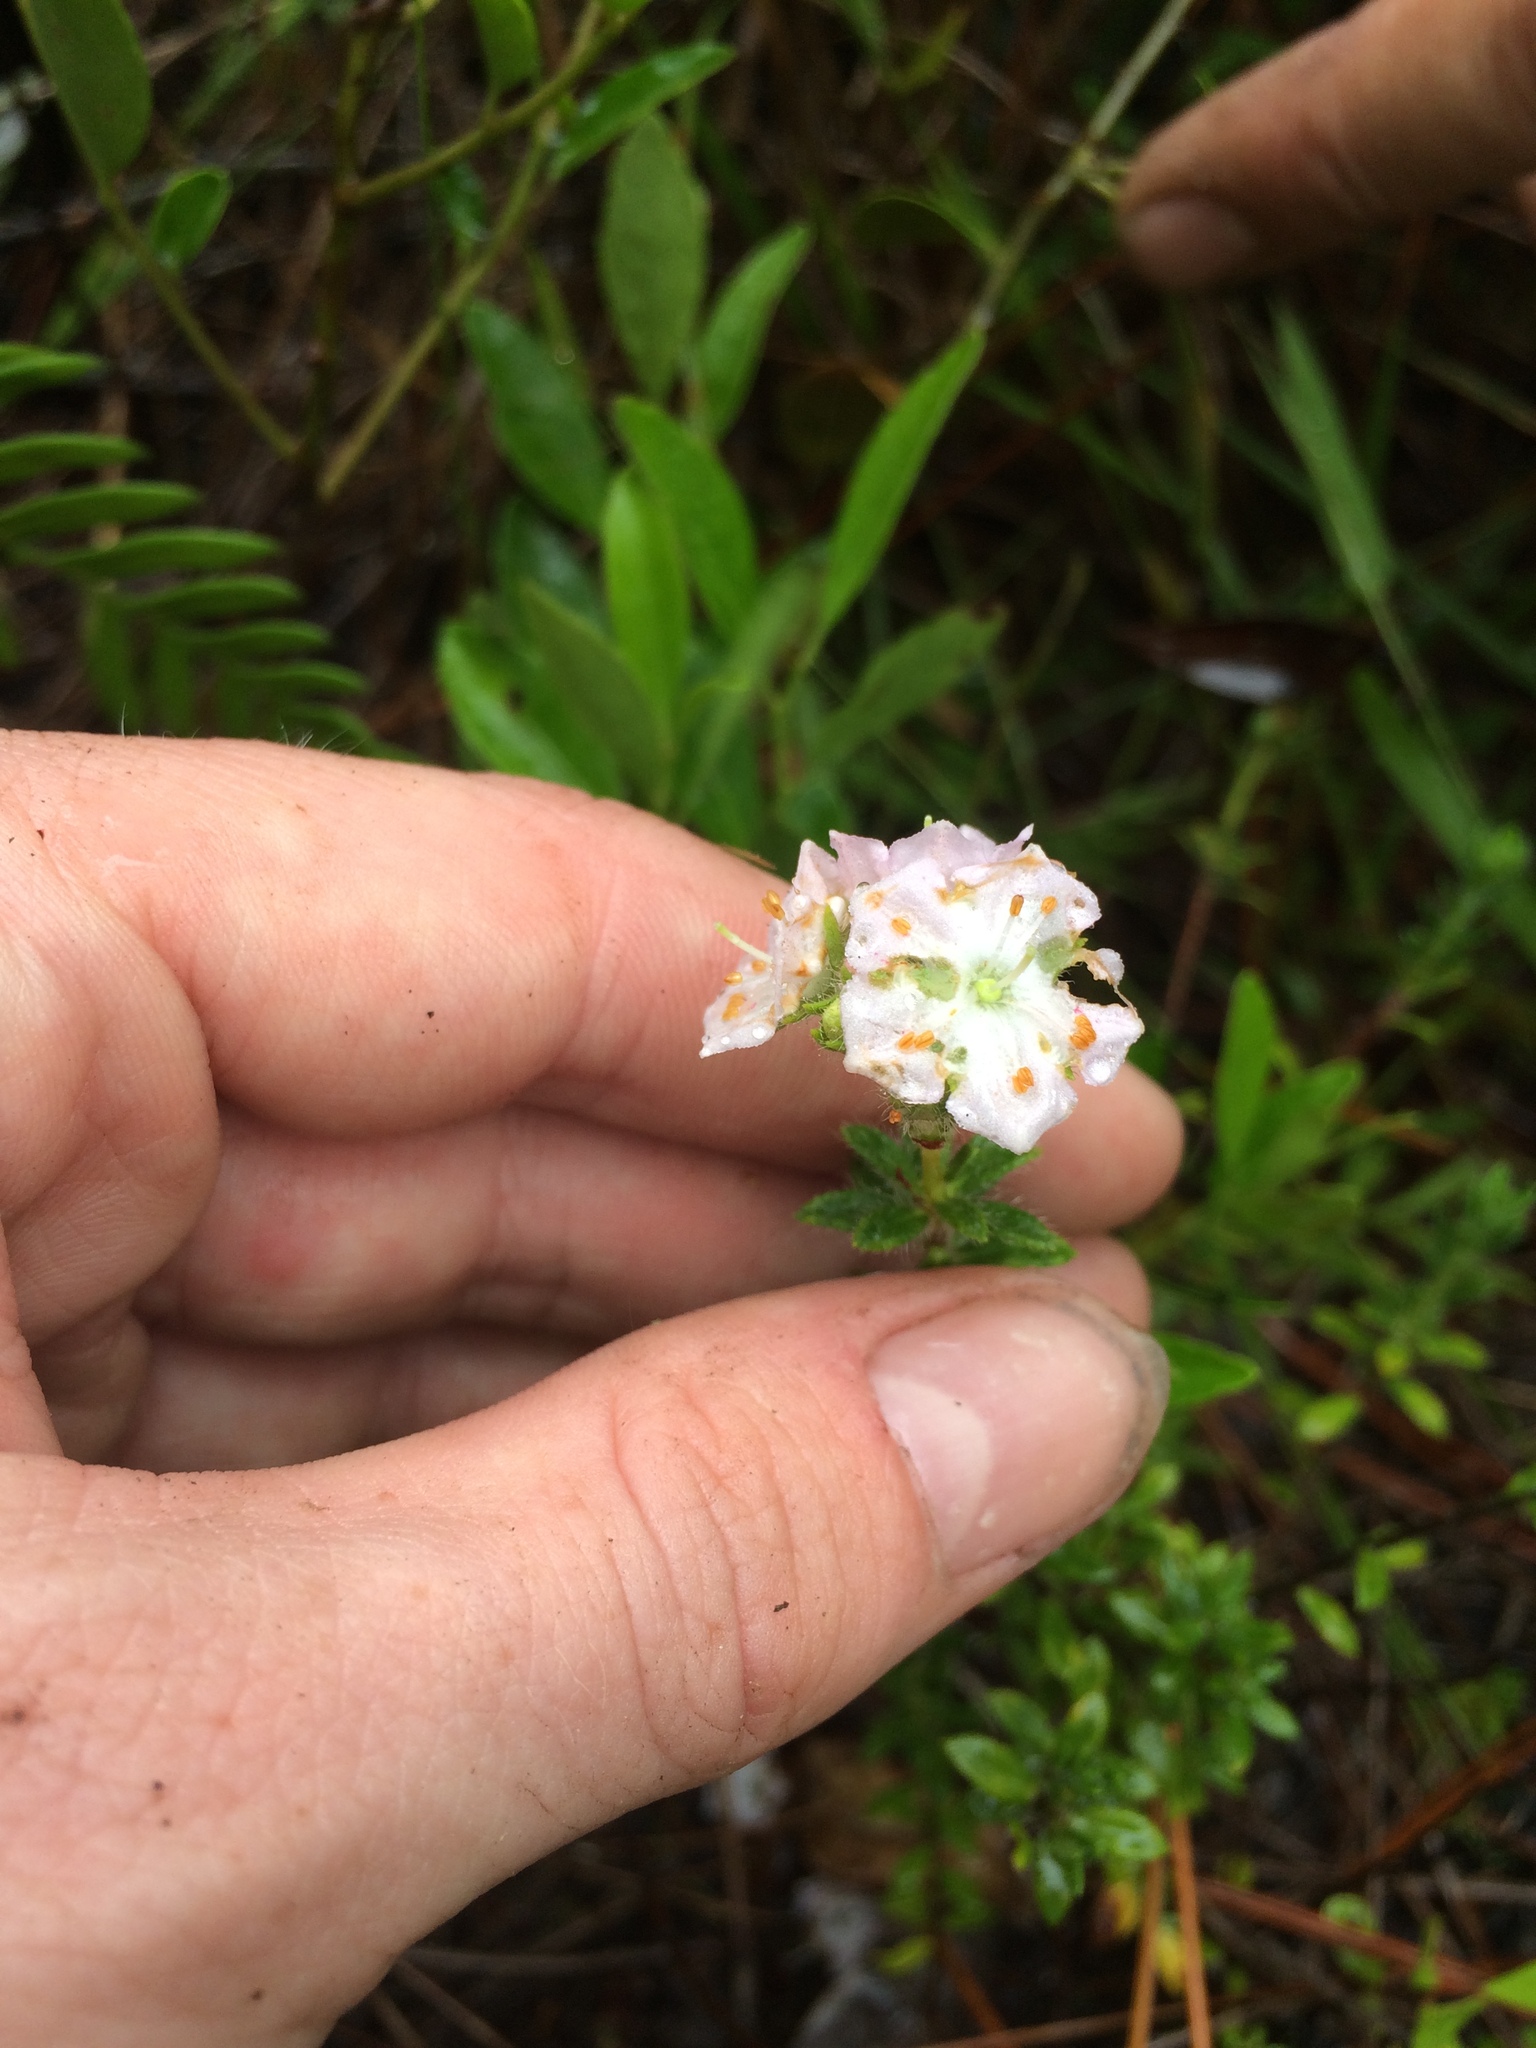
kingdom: Plantae
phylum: Tracheophyta
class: Magnoliopsida
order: Ericales
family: Ericaceae
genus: Kalmia
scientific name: Kalmia hirsuta
